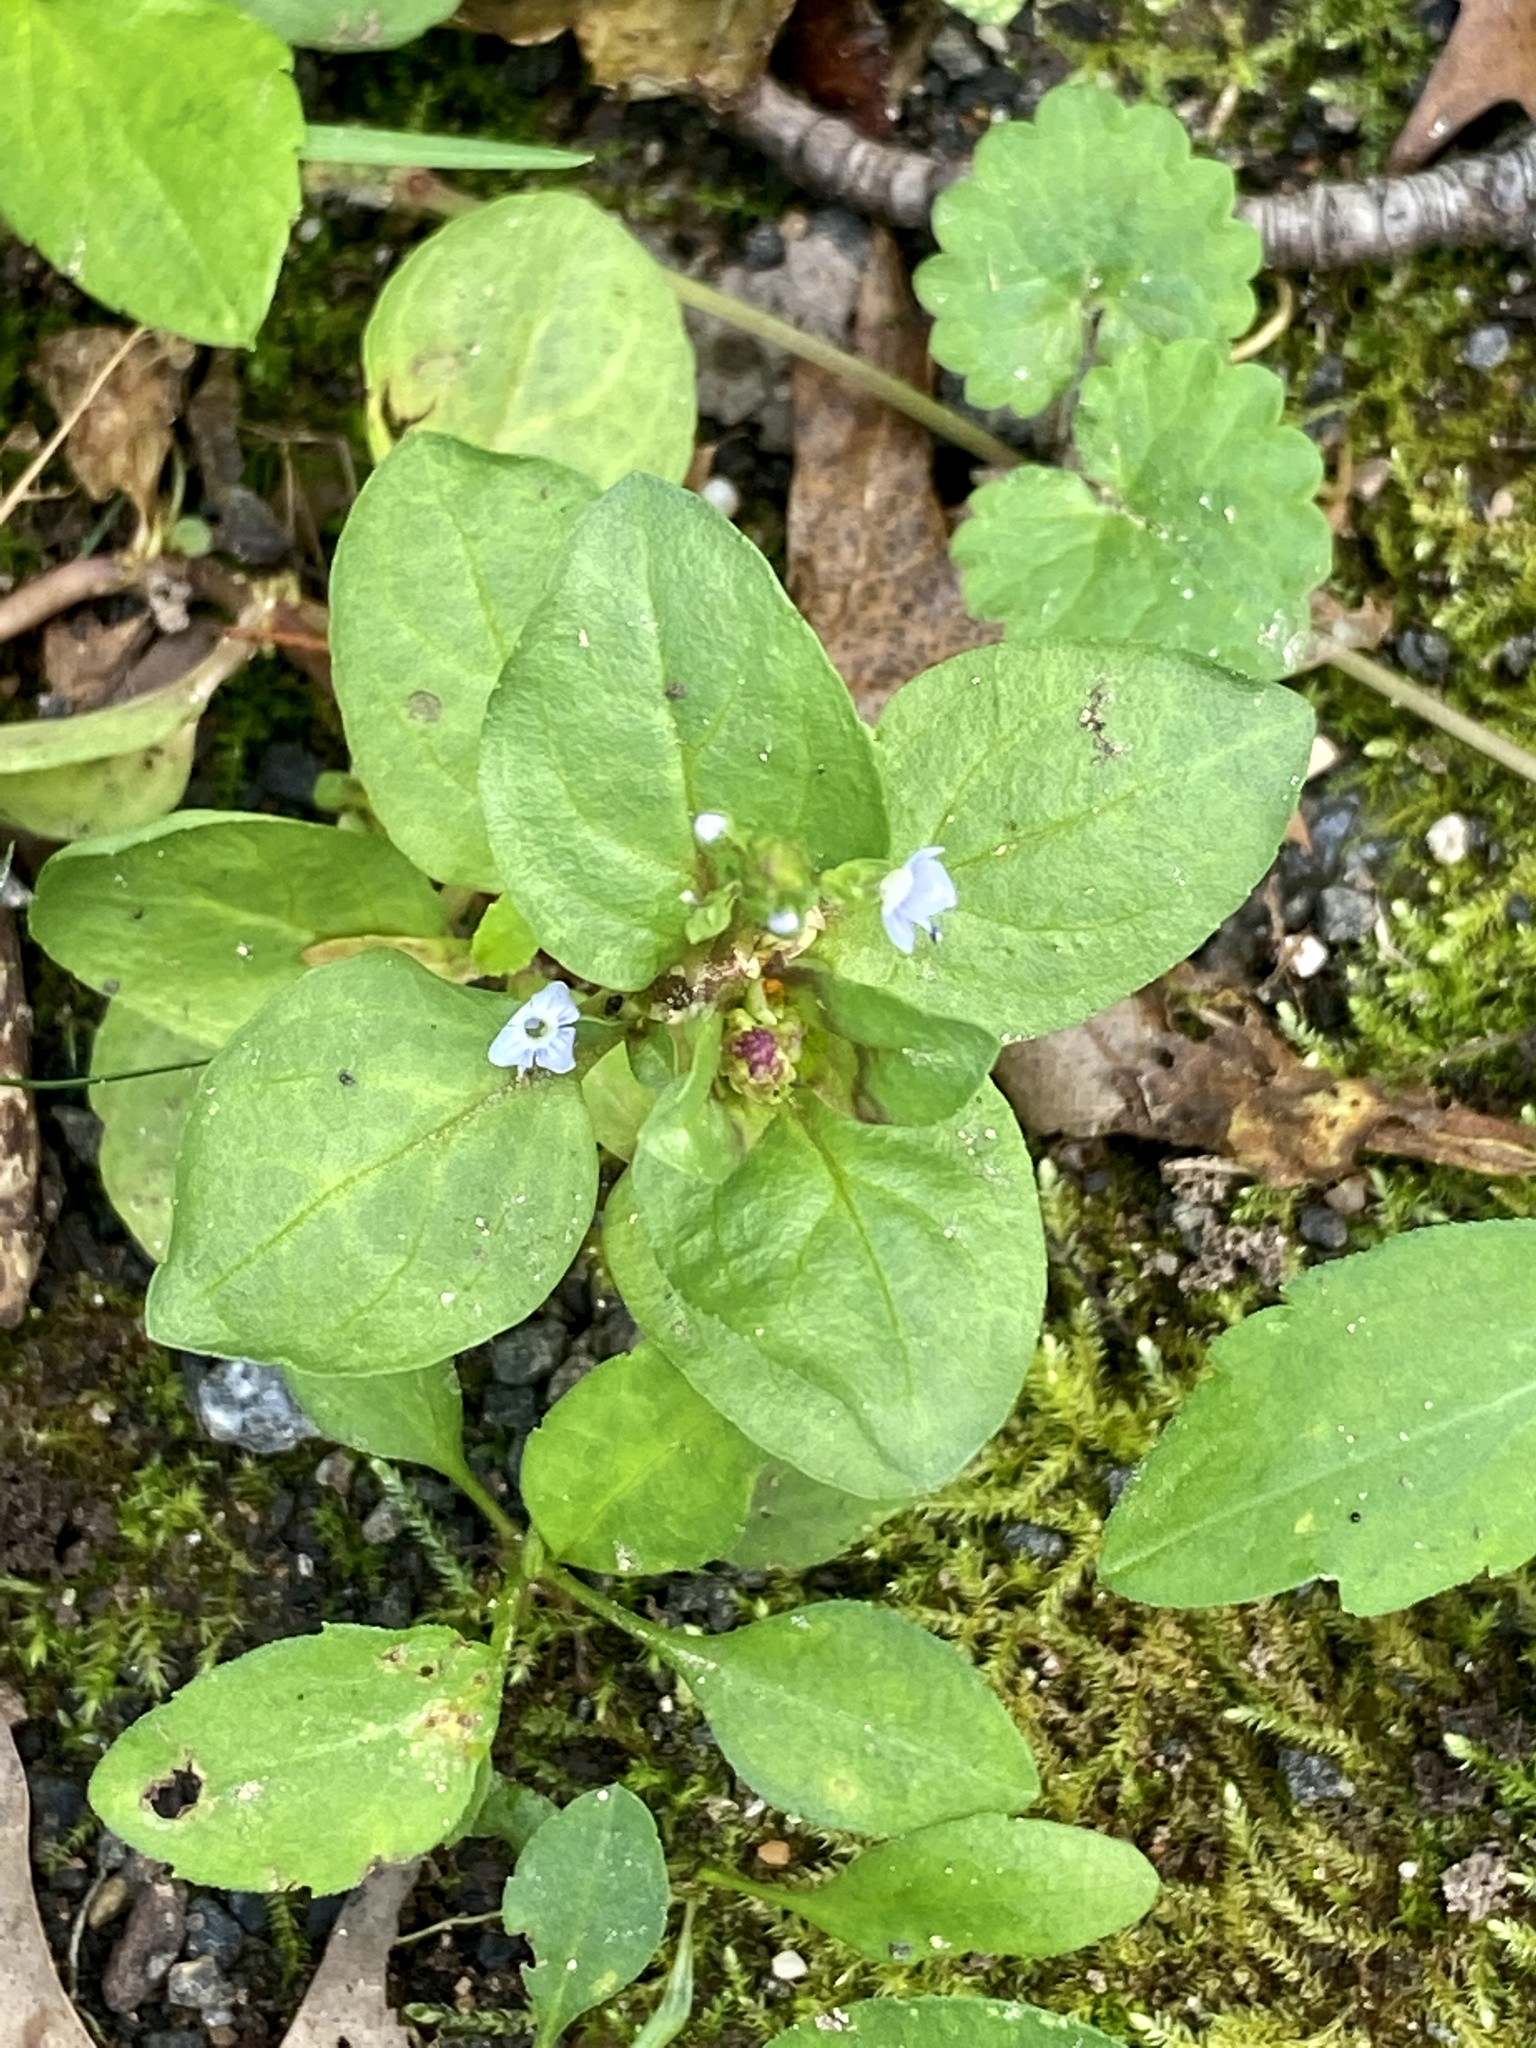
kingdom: Plantae
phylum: Tracheophyta
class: Magnoliopsida
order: Lamiales
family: Plantaginaceae
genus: Veronica
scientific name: Veronica americana
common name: American brooklime
